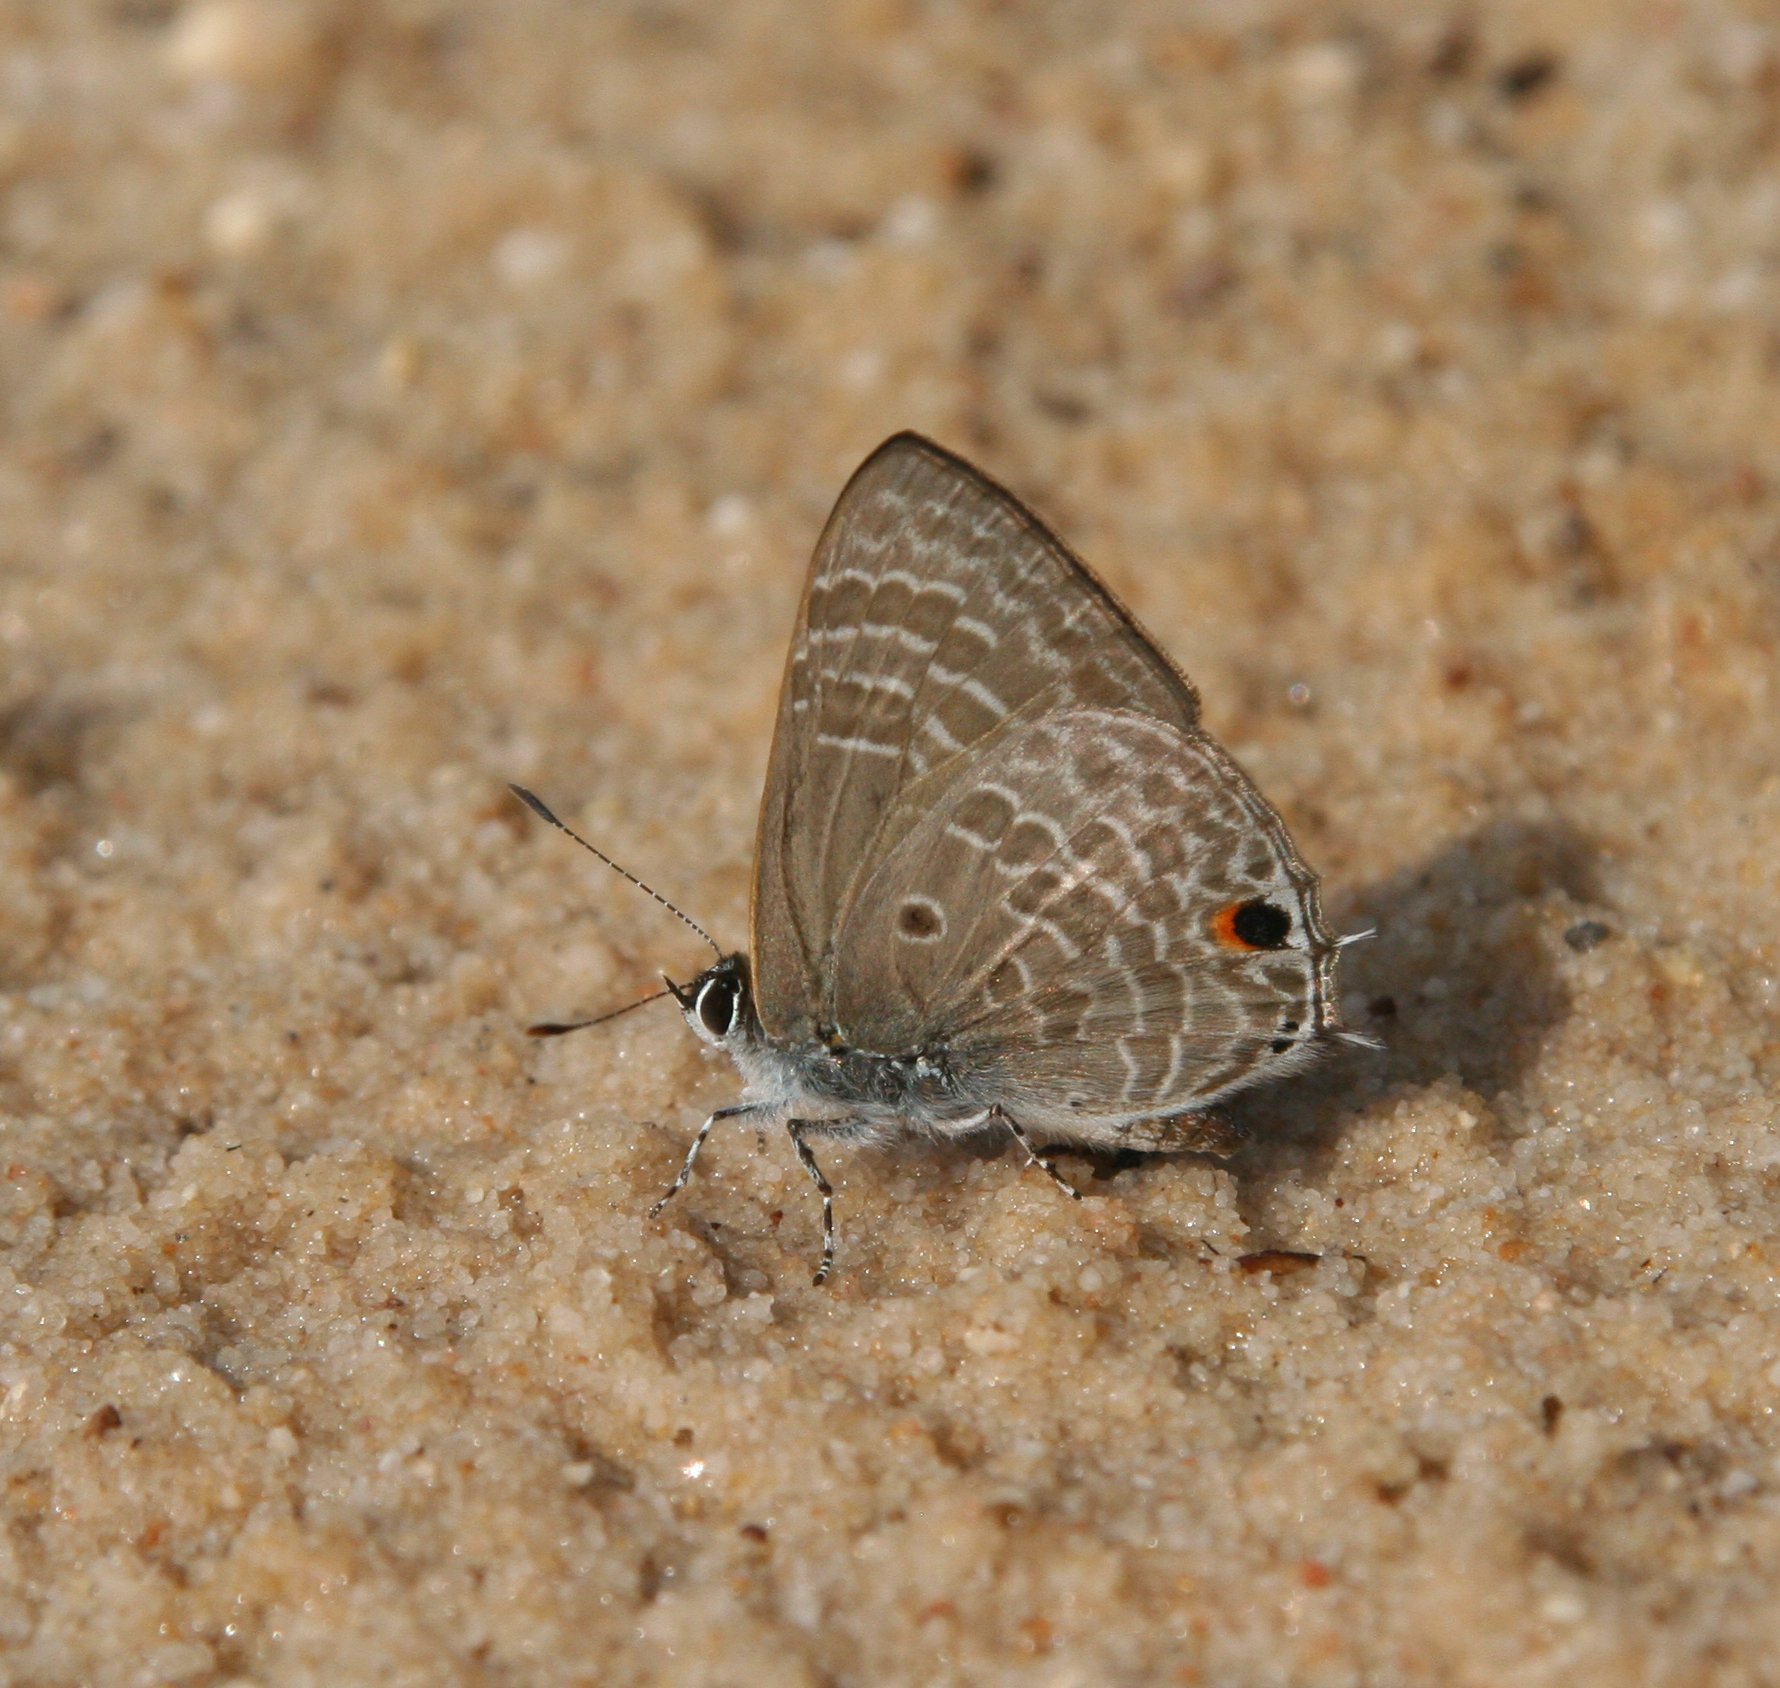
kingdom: Animalia
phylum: Arthropoda
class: Insecta
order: Lepidoptera
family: Lycaenidae
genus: Anthene
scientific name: Anthene lycaenina
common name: Pointed ciliate blue
